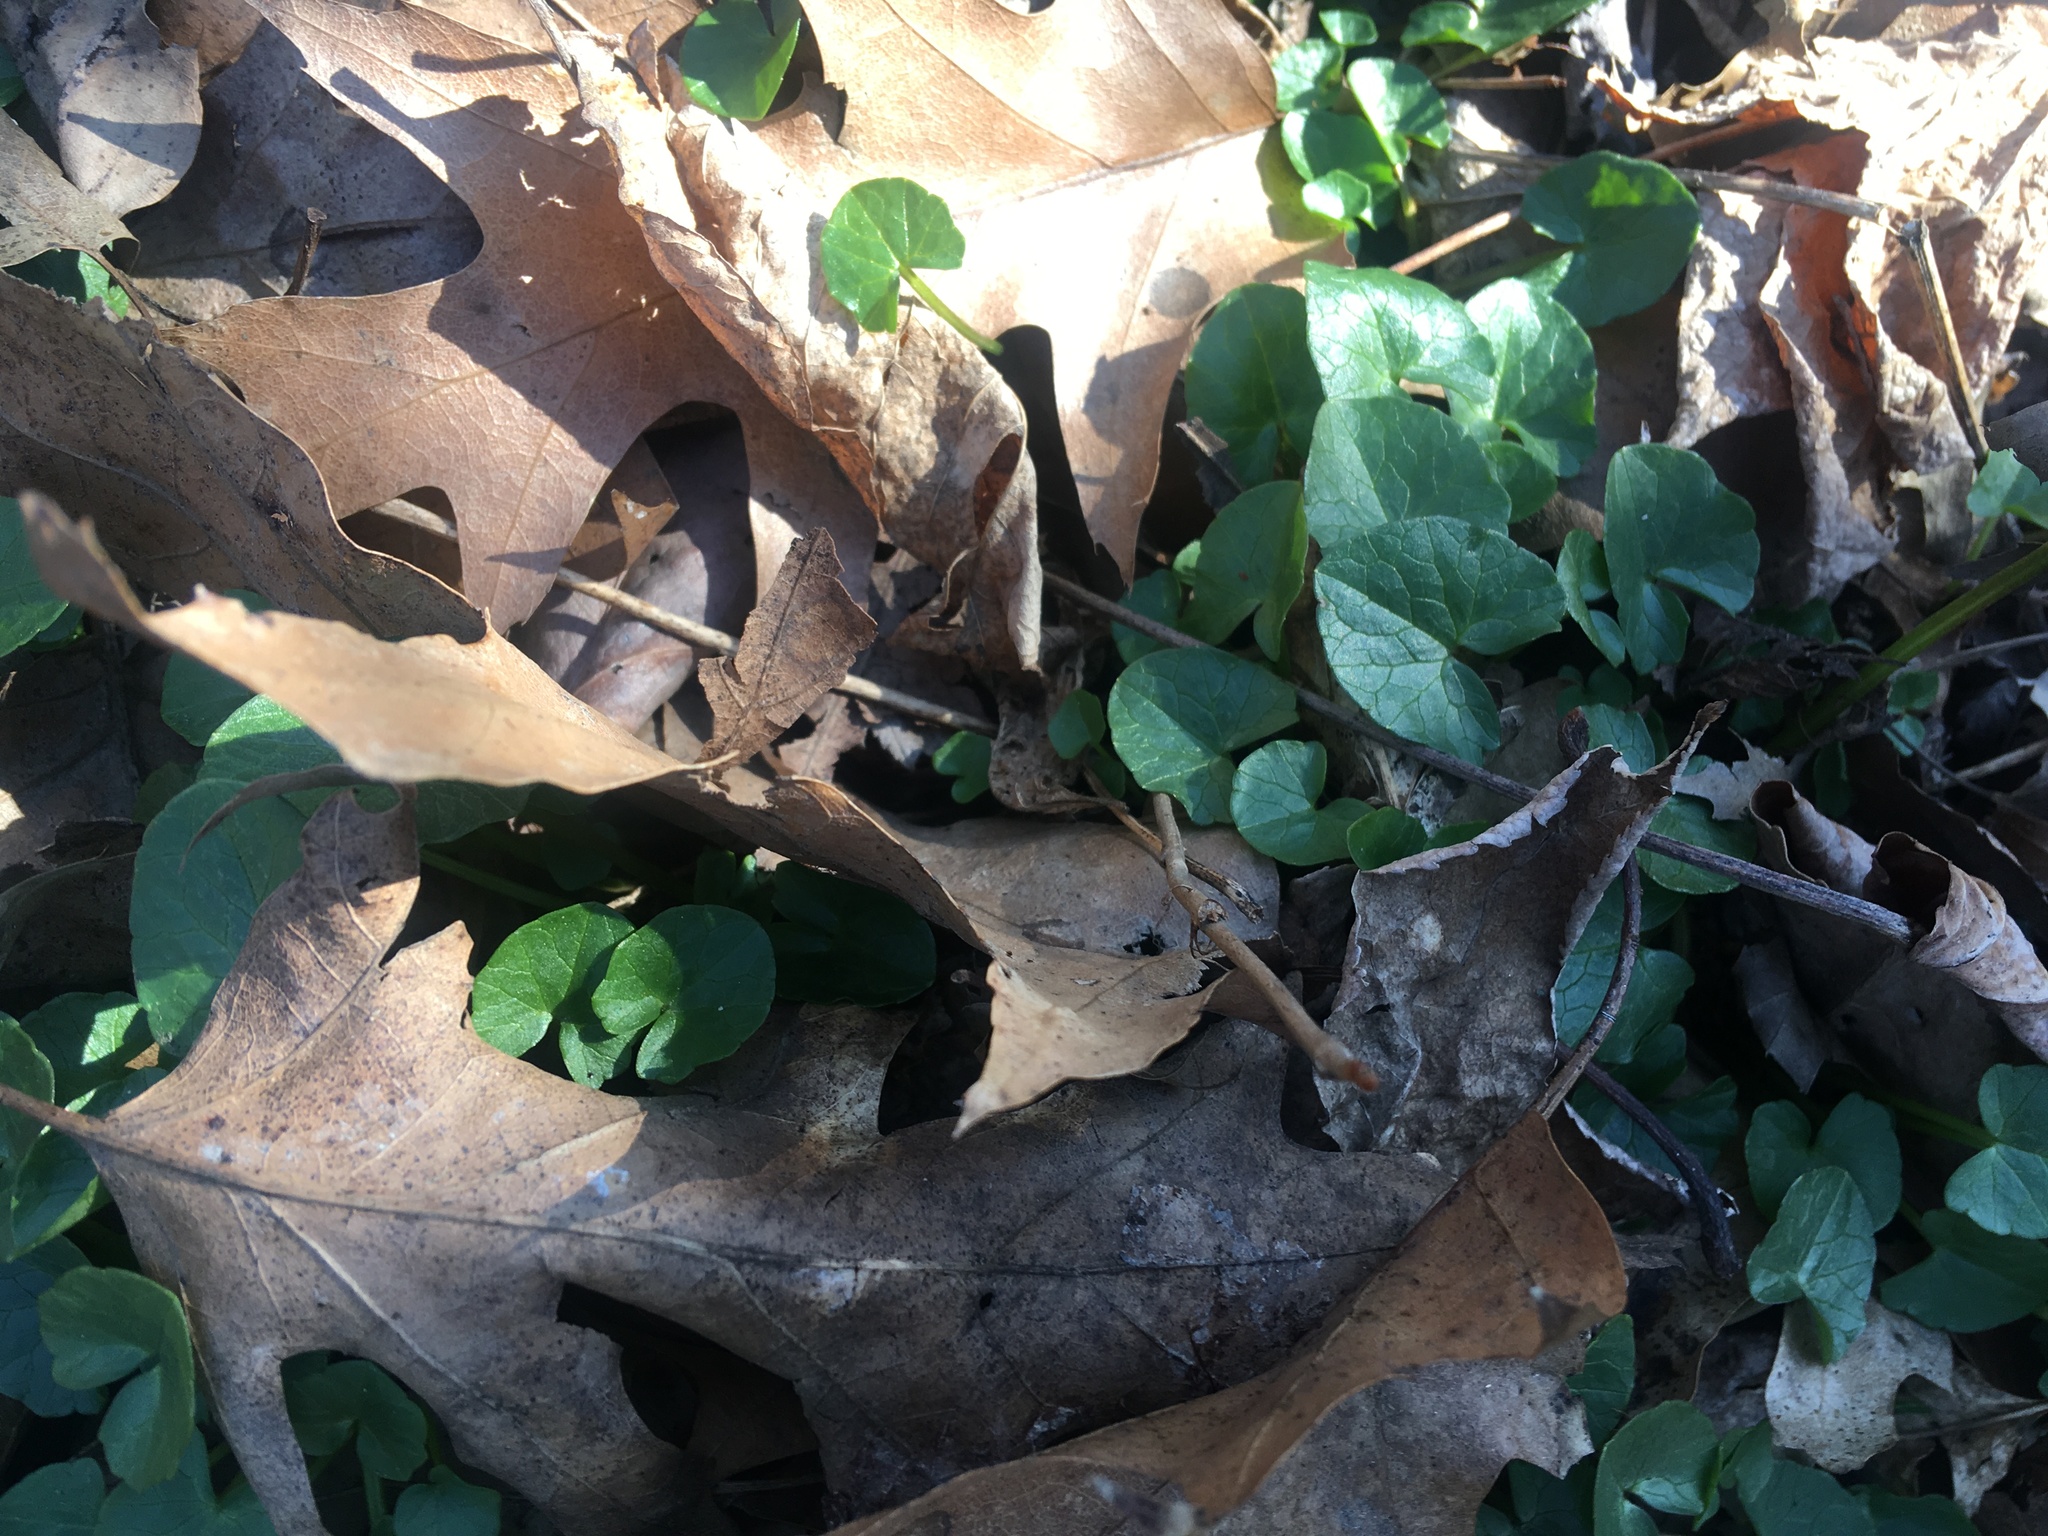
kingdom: Plantae
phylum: Tracheophyta
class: Magnoliopsida
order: Ranunculales
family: Ranunculaceae
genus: Ficaria
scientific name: Ficaria verna
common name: Lesser celandine
